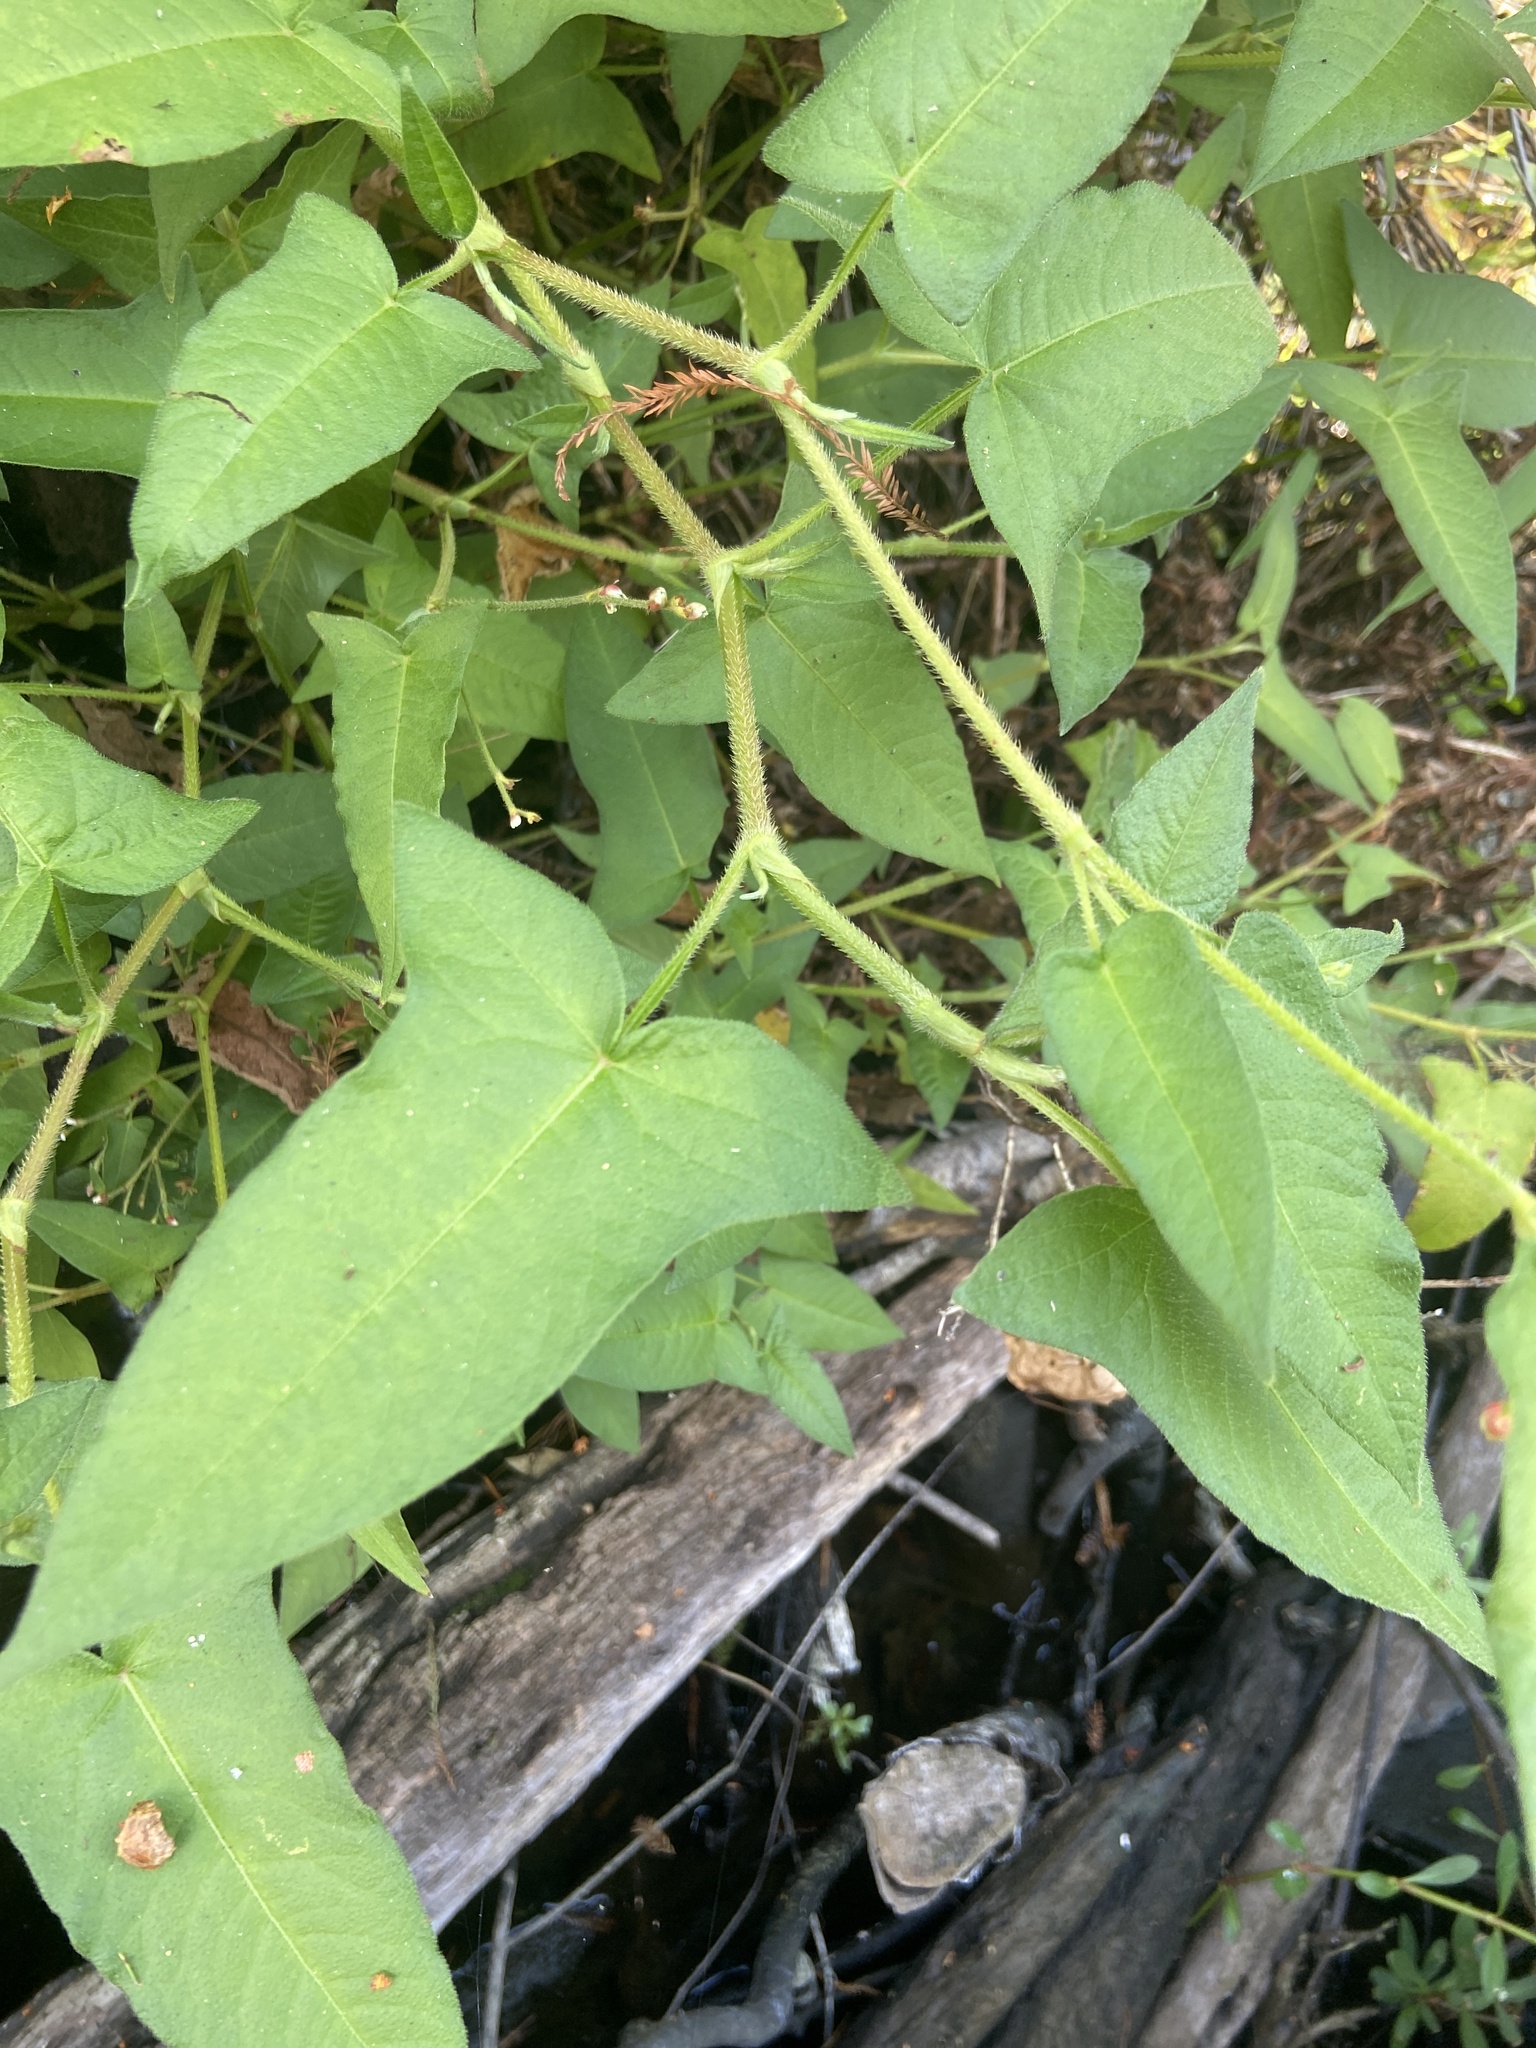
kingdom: Plantae
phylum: Tracheophyta
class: Magnoliopsida
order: Caryophyllales
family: Polygonaceae
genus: Persicaria
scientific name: Persicaria arifolia
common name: Halberd-leaved tear-thumb
